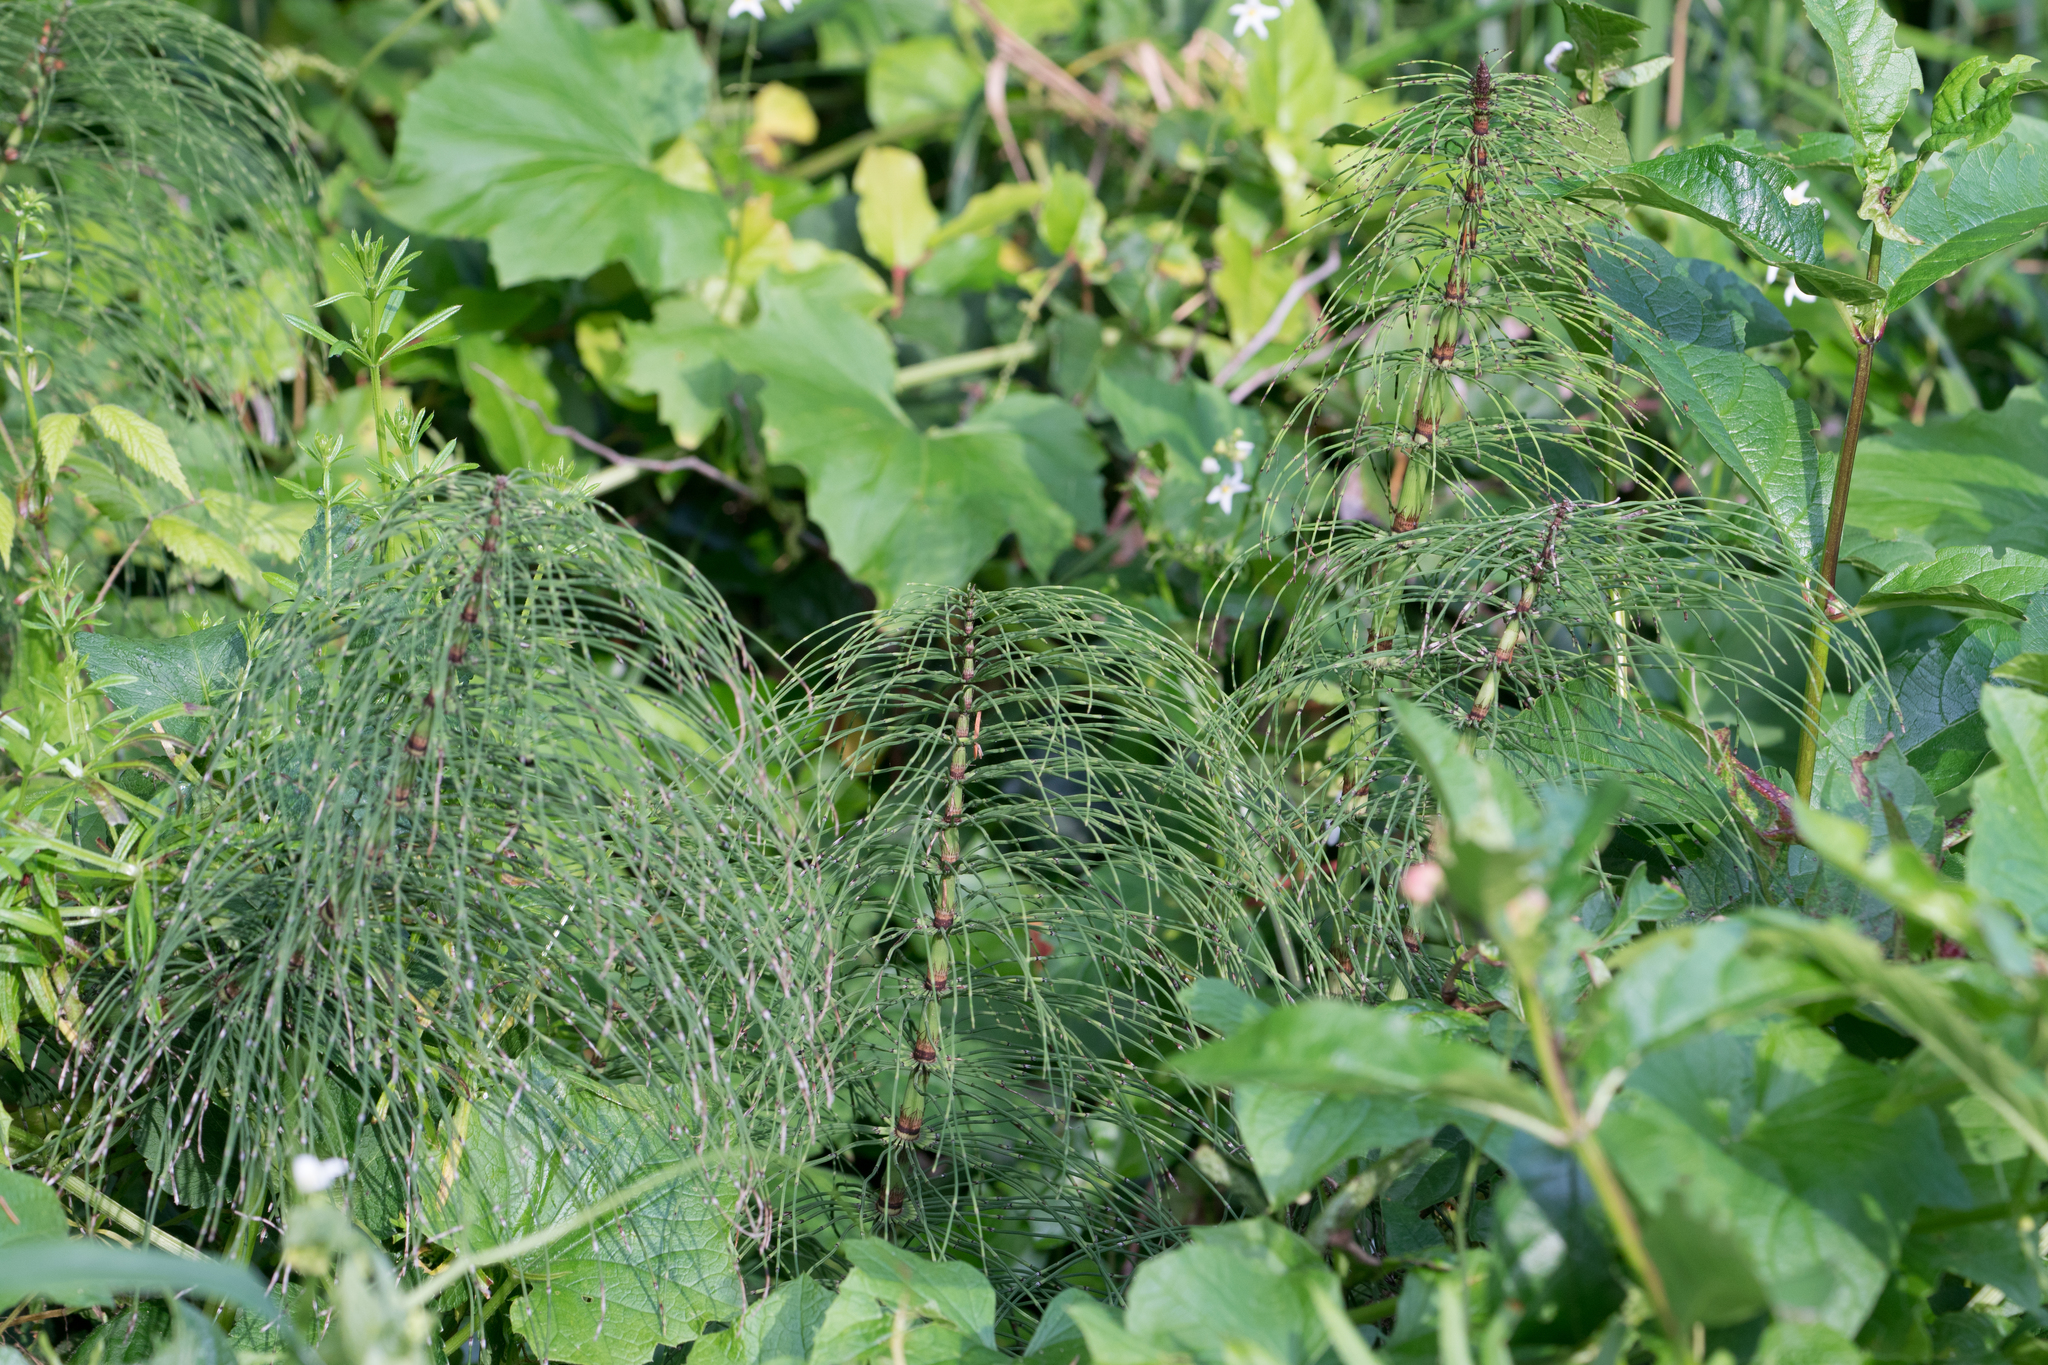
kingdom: Plantae
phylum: Tracheophyta
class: Polypodiopsida
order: Equisetales
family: Equisetaceae
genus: Equisetum
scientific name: Equisetum braunii
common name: Braun's horsetail
